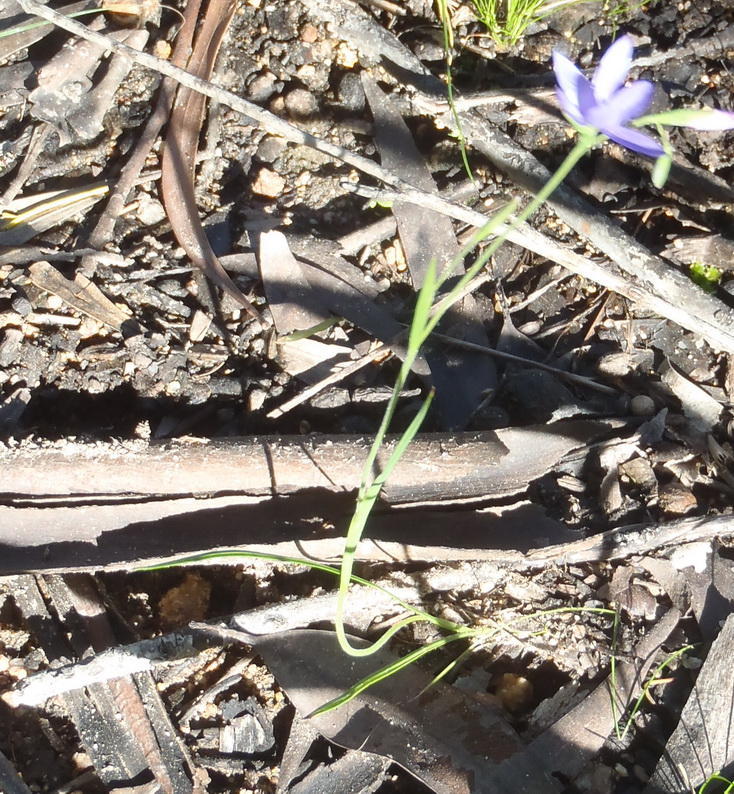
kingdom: Plantae
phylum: Tracheophyta
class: Liliopsida
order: Asparagales
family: Iridaceae
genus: Geissorhiza
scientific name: Geissorhiza aspera
